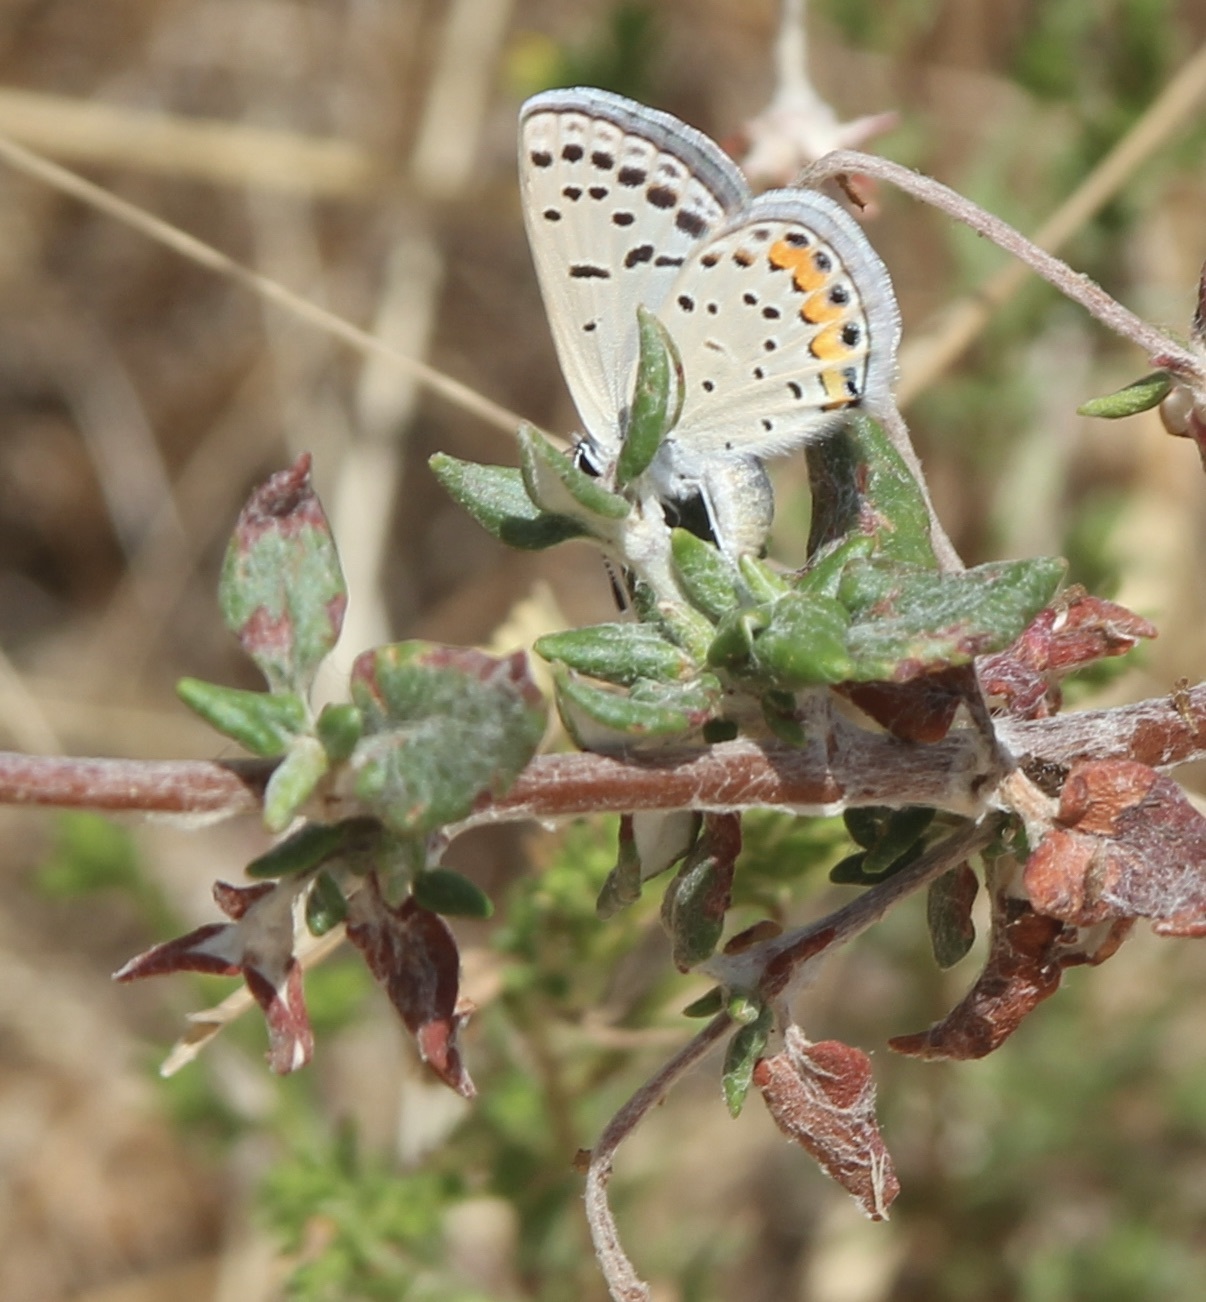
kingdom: Animalia
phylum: Arthropoda
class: Insecta
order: Lepidoptera
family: Lycaenidae
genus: Icaricia
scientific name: Icaricia acmon
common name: Acmon blue
